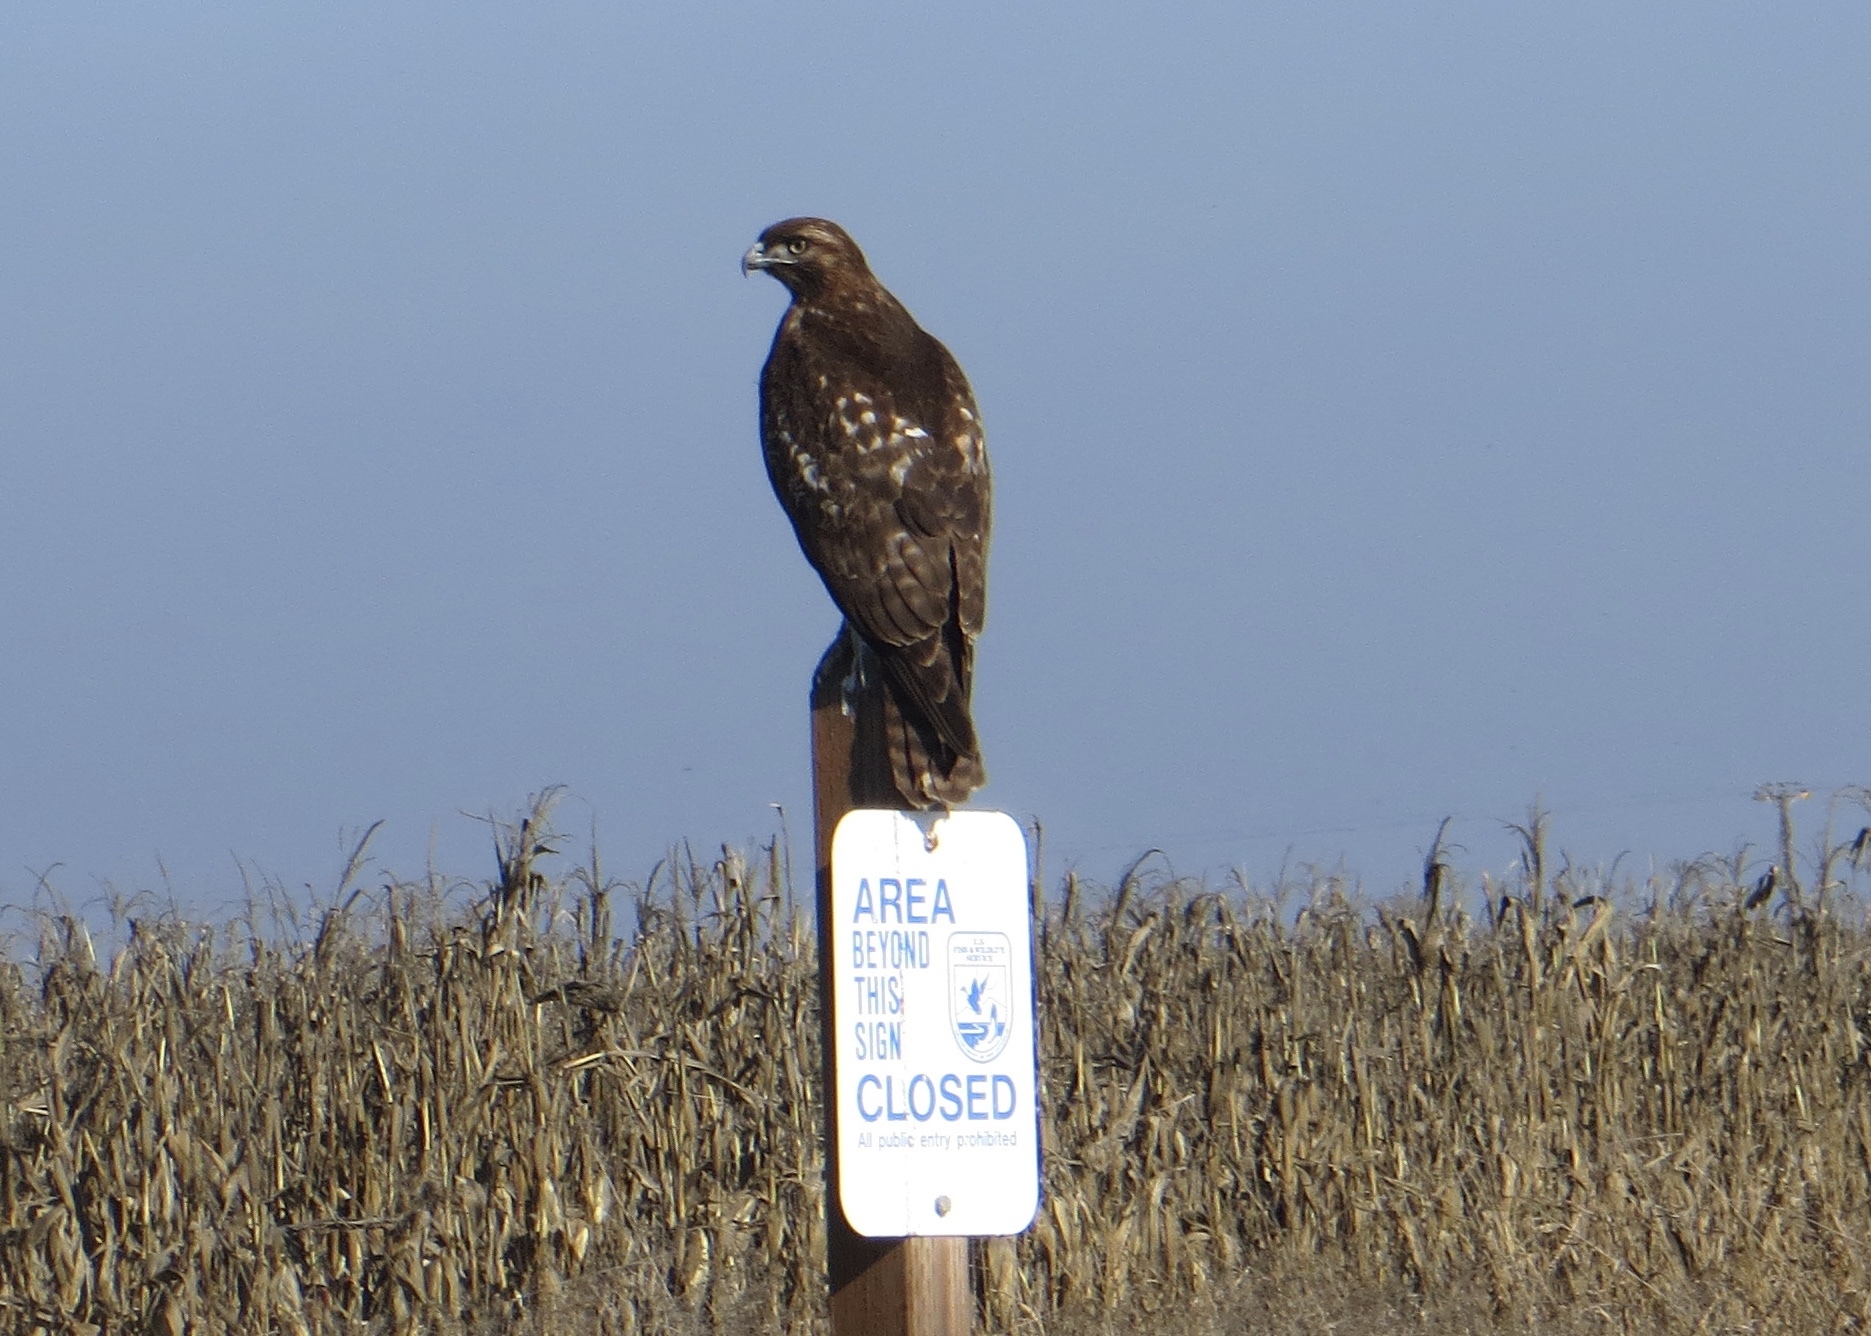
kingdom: Animalia
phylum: Chordata
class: Aves
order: Accipitriformes
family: Accipitridae
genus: Buteo
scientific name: Buteo jamaicensis
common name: Red-tailed hawk
